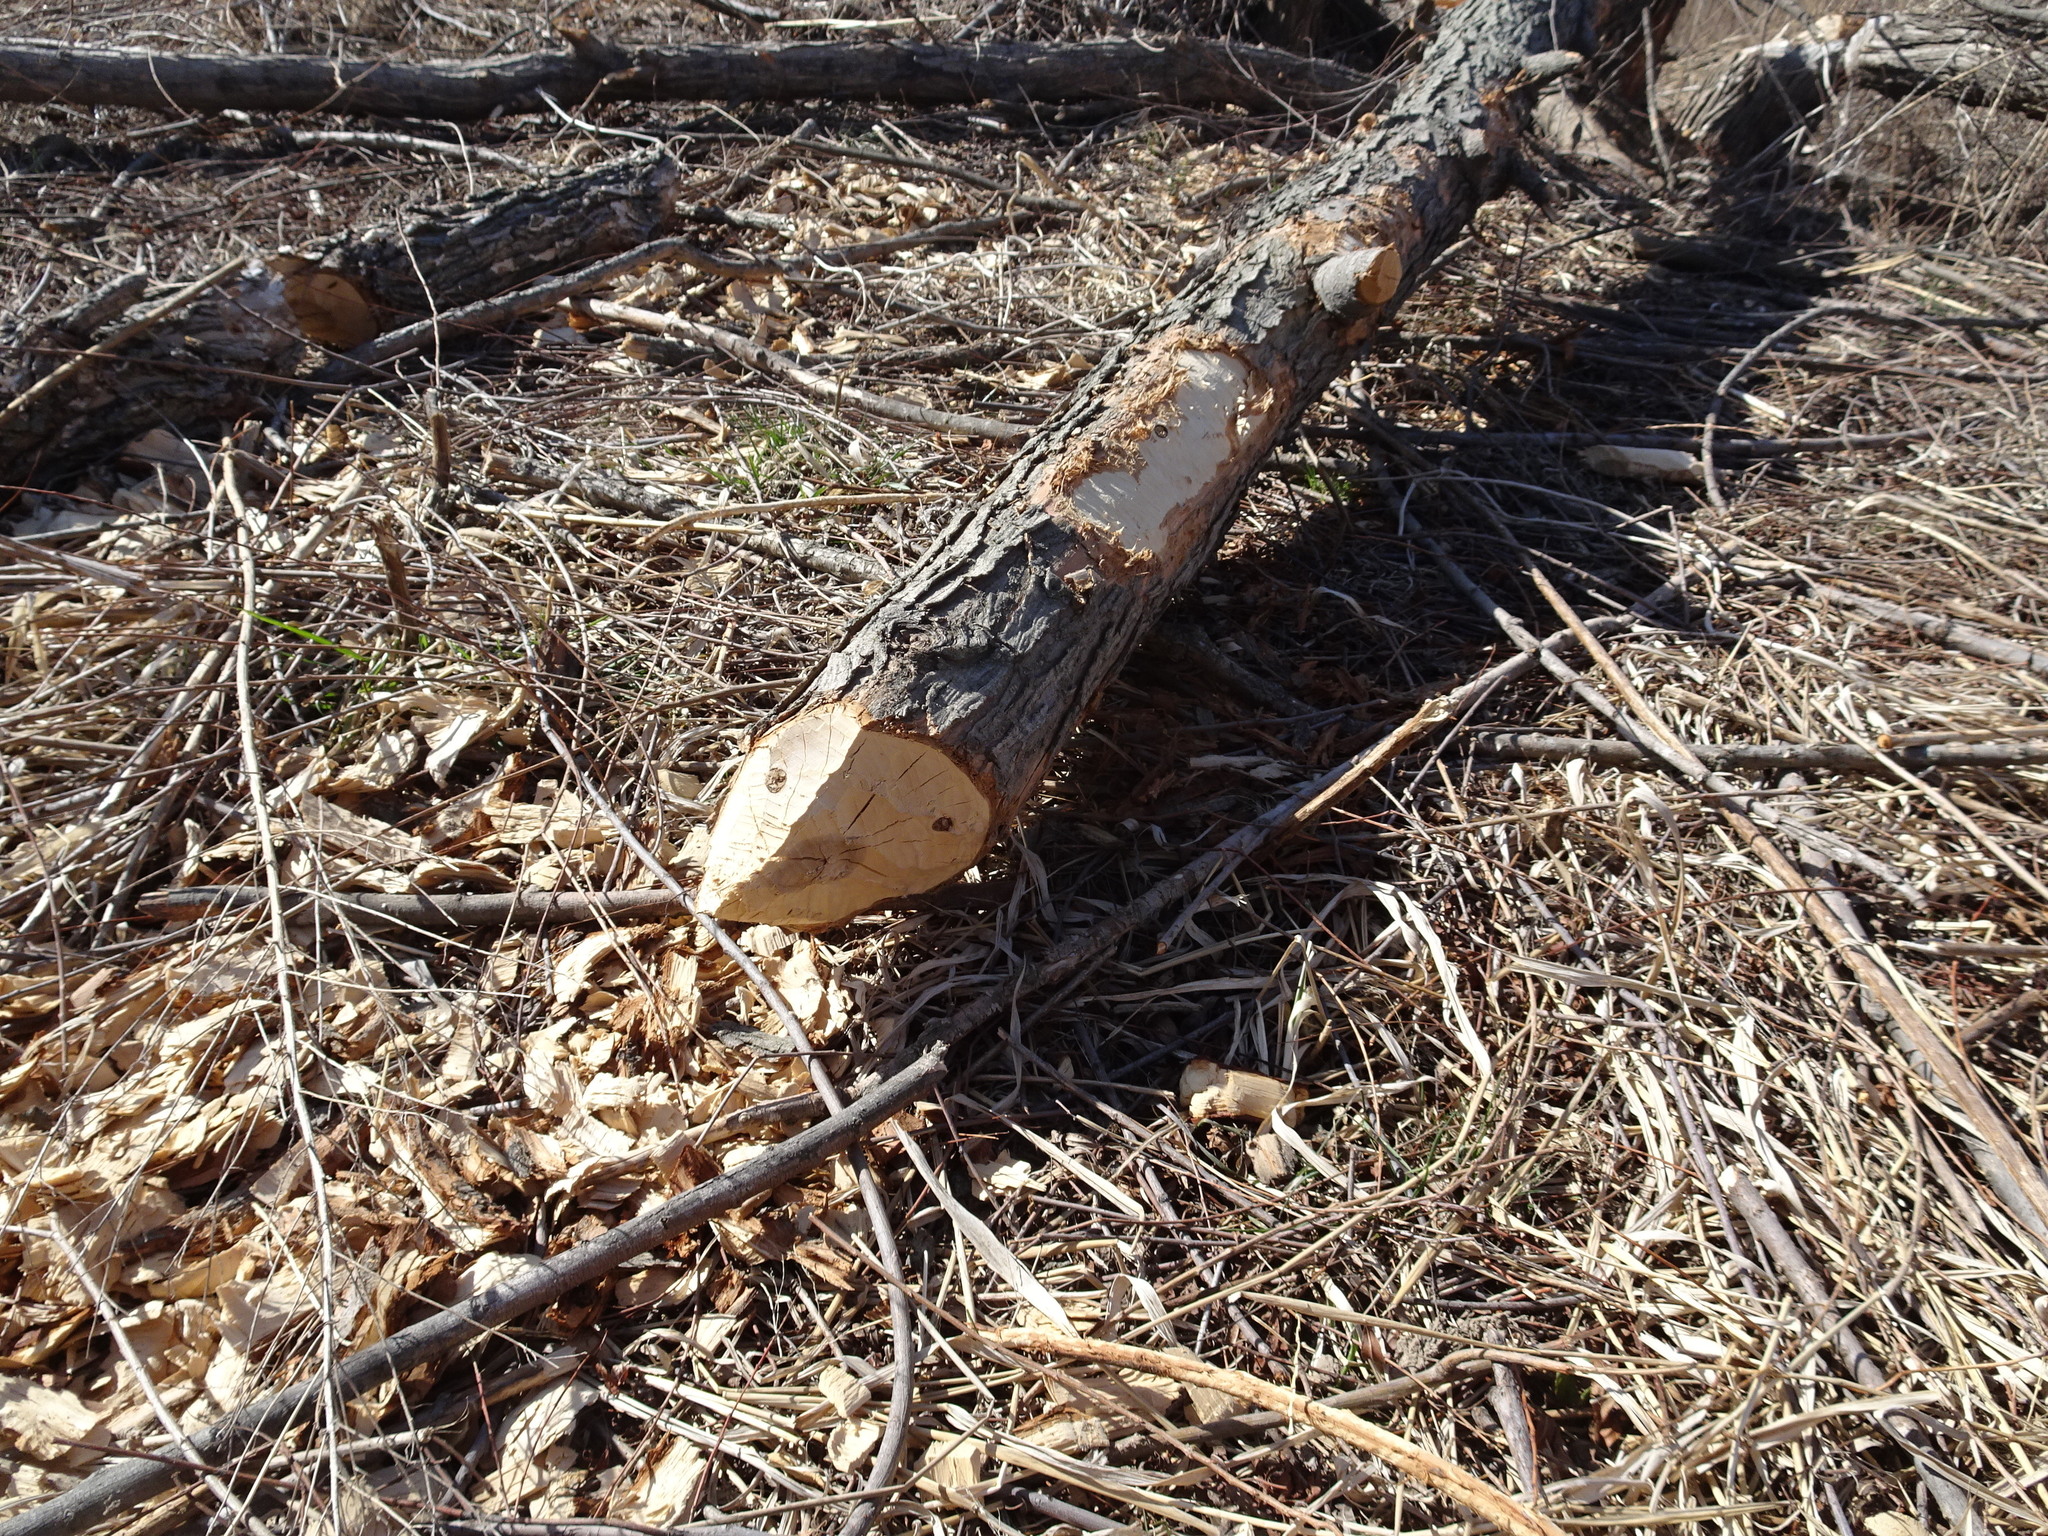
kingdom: Animalia
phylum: Chordata
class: Mammalia
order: Rodentia
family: Castoridae
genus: Castor
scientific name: Castor canadensis
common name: American beaver
